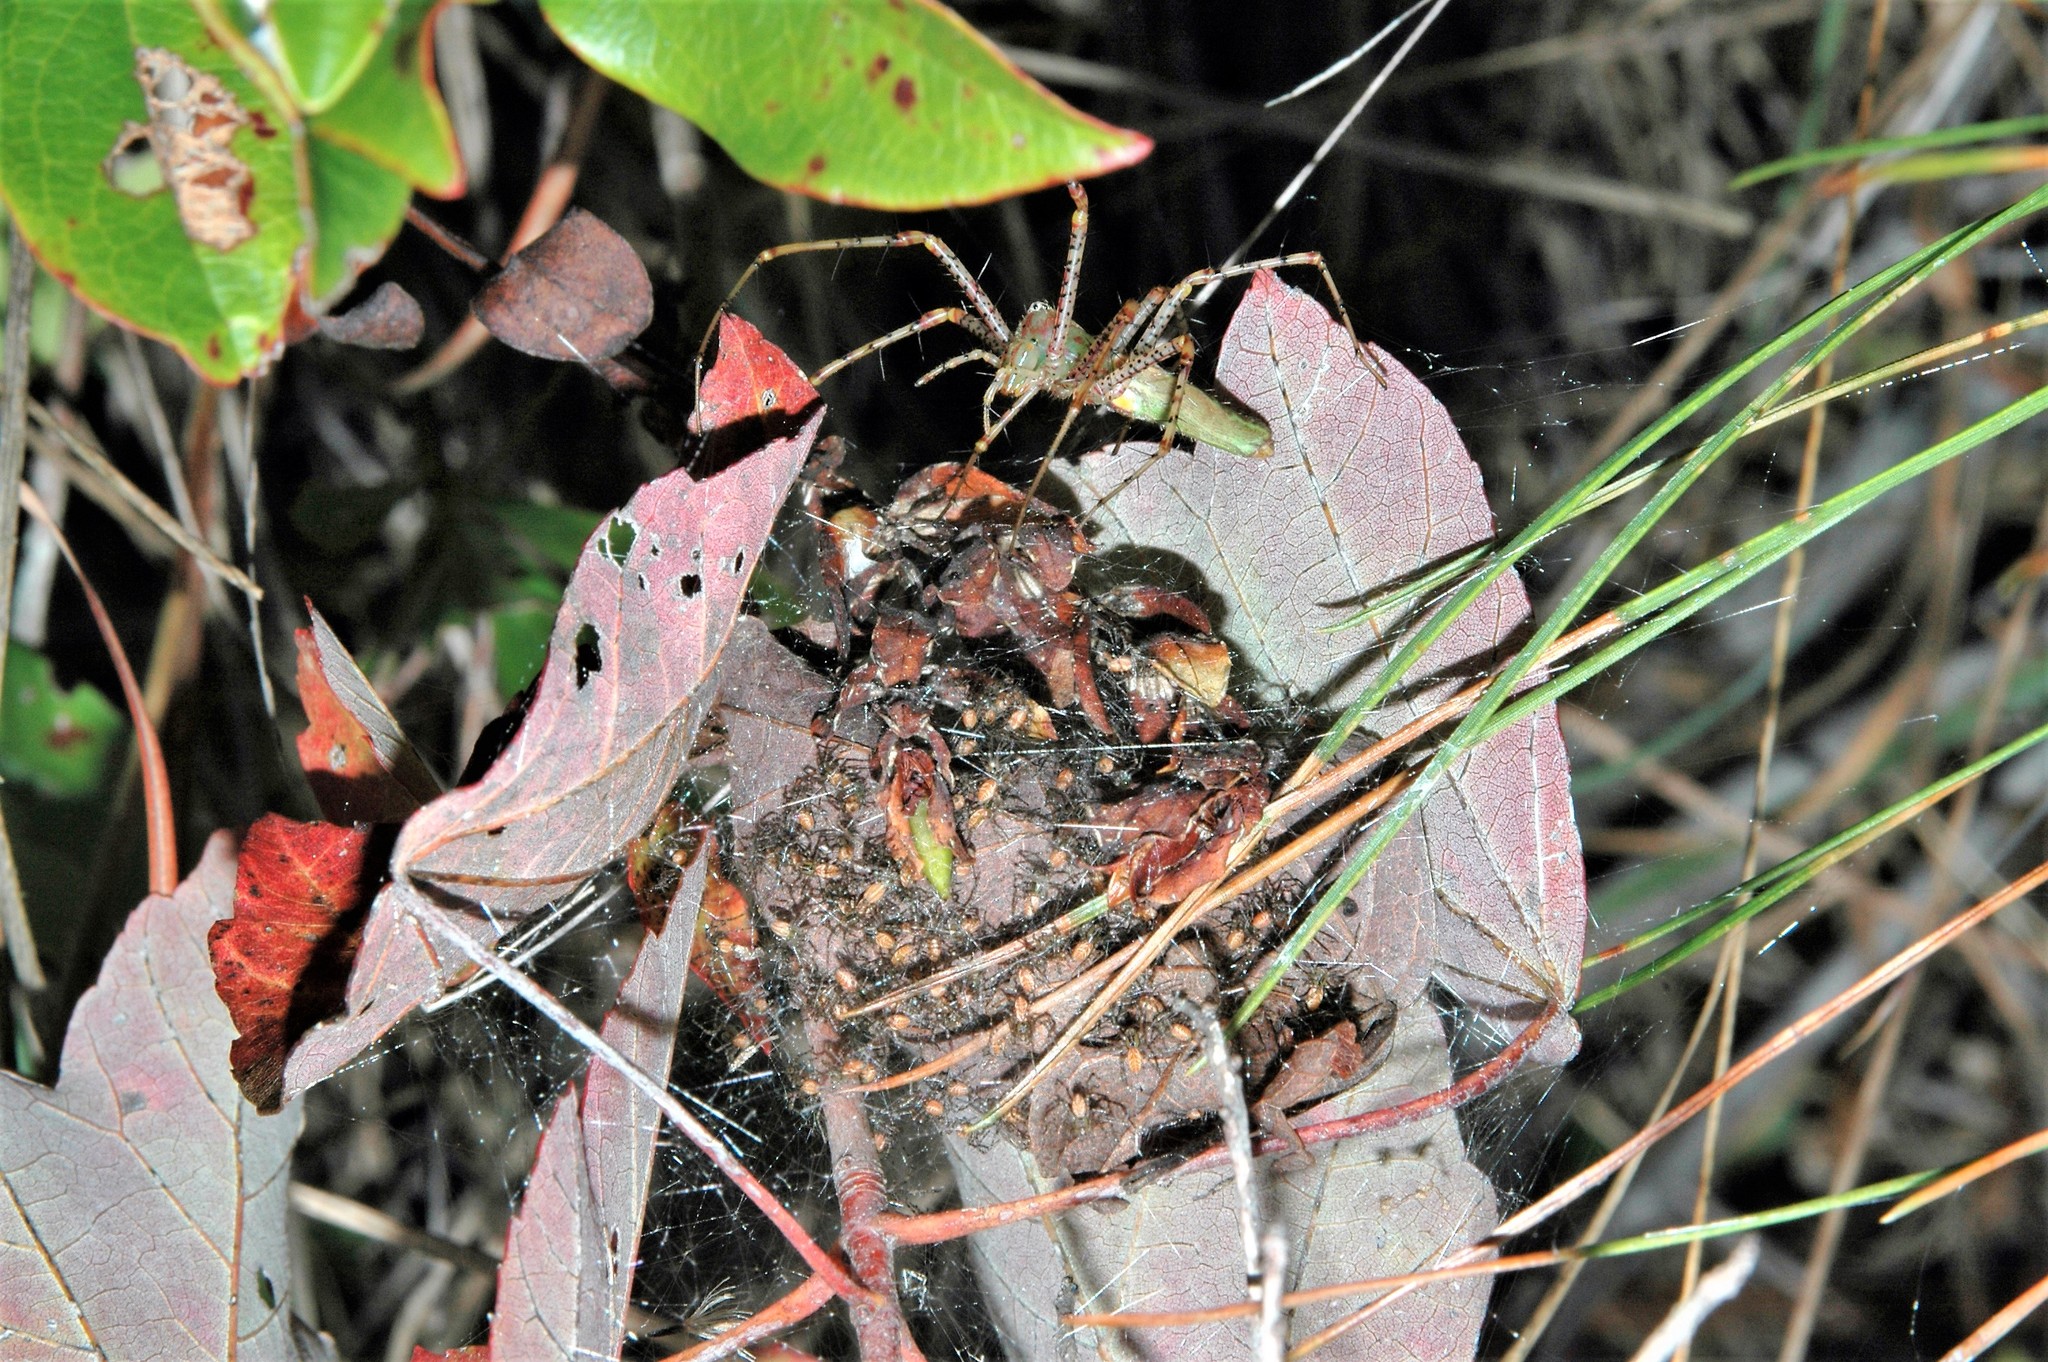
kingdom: Animalia
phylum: Arthropoda
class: Arachnida
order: Araneae
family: Oxyopidae
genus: Peucetia
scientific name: Peucetia viridans
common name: Lynx spiders
